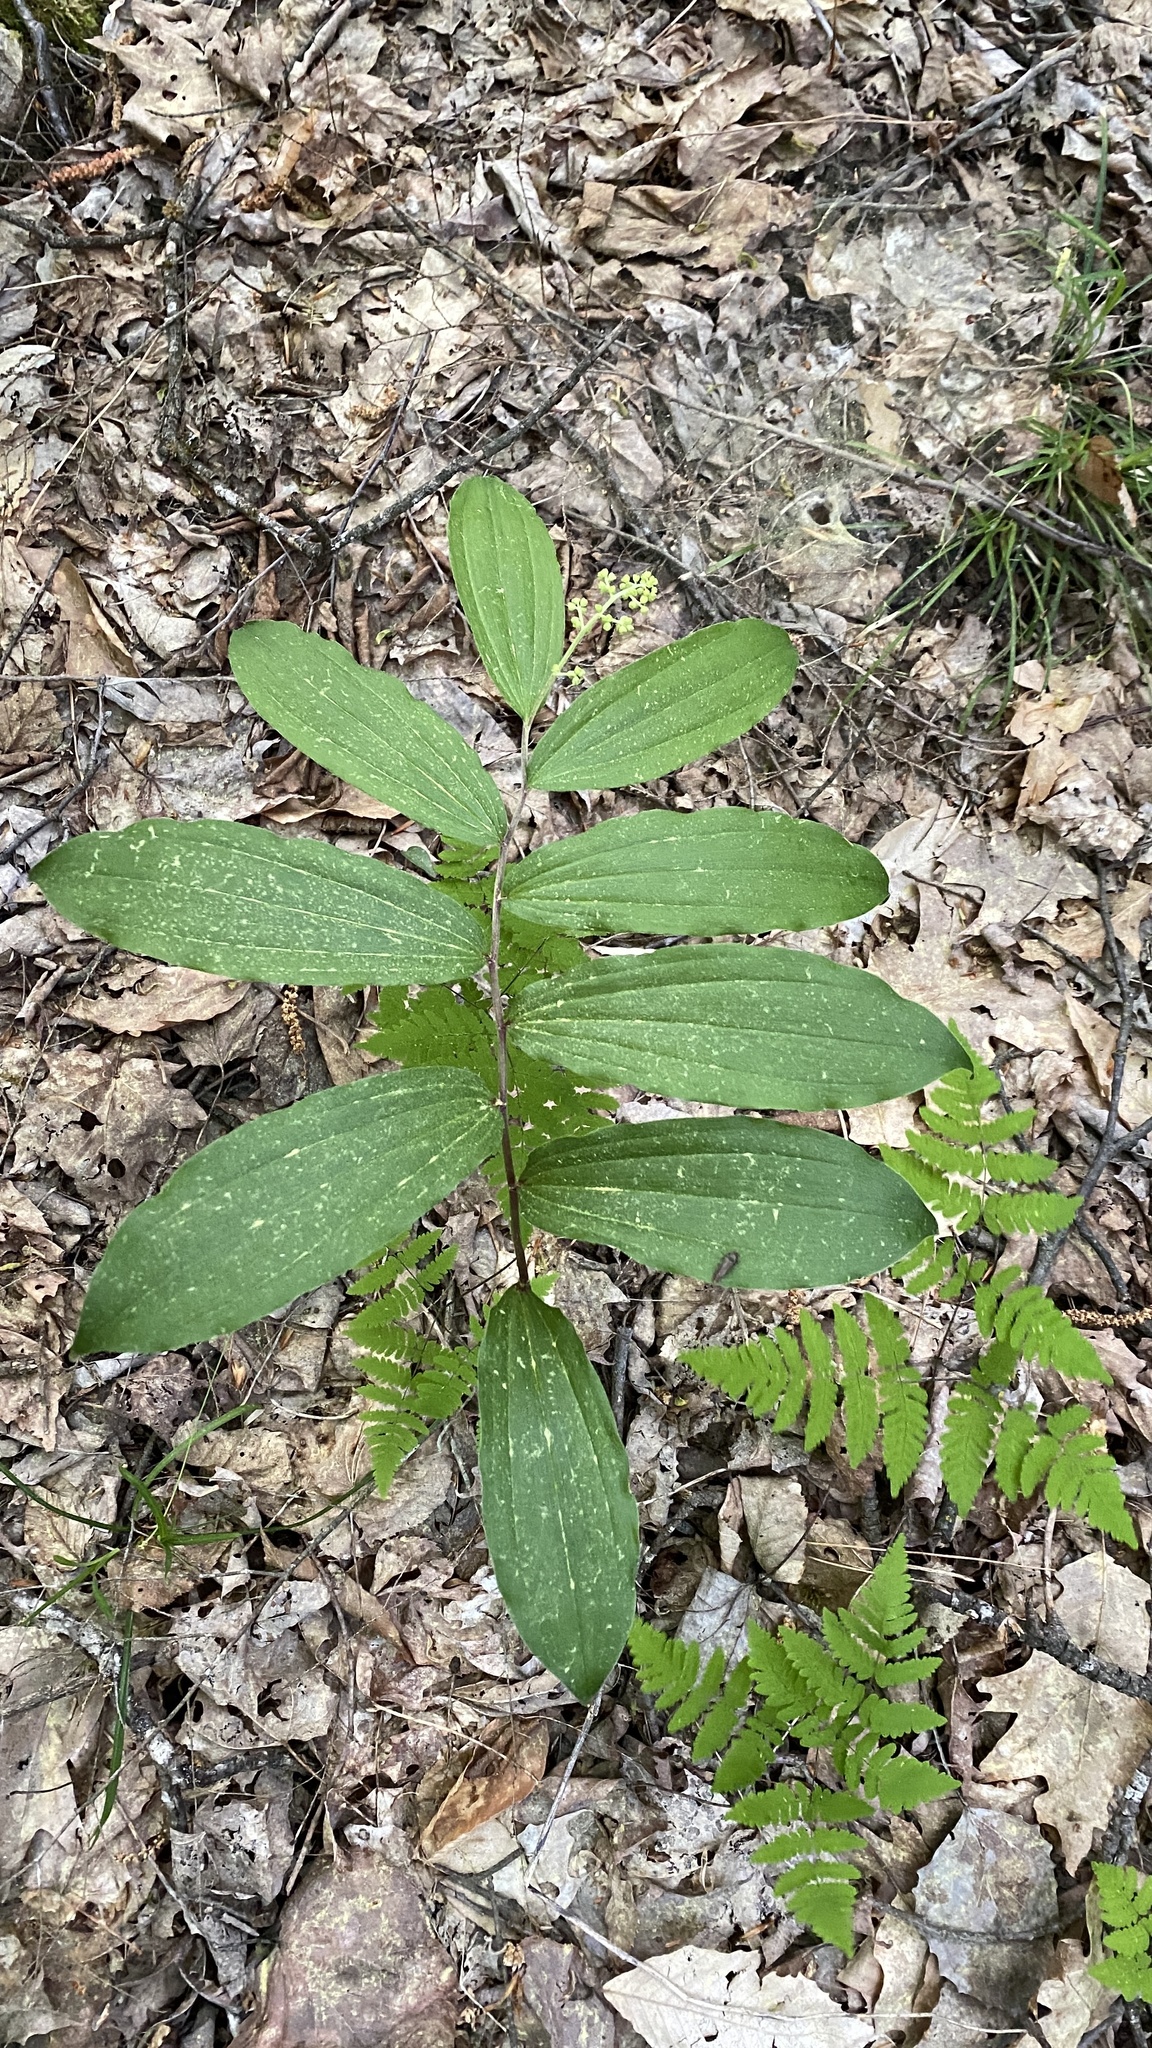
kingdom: Plantae
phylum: Tracheophyta
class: Liliopsida
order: Asparagales
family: Asparagaceae
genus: Maianthemum
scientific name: Maianthemum racemosum
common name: False spikenard
